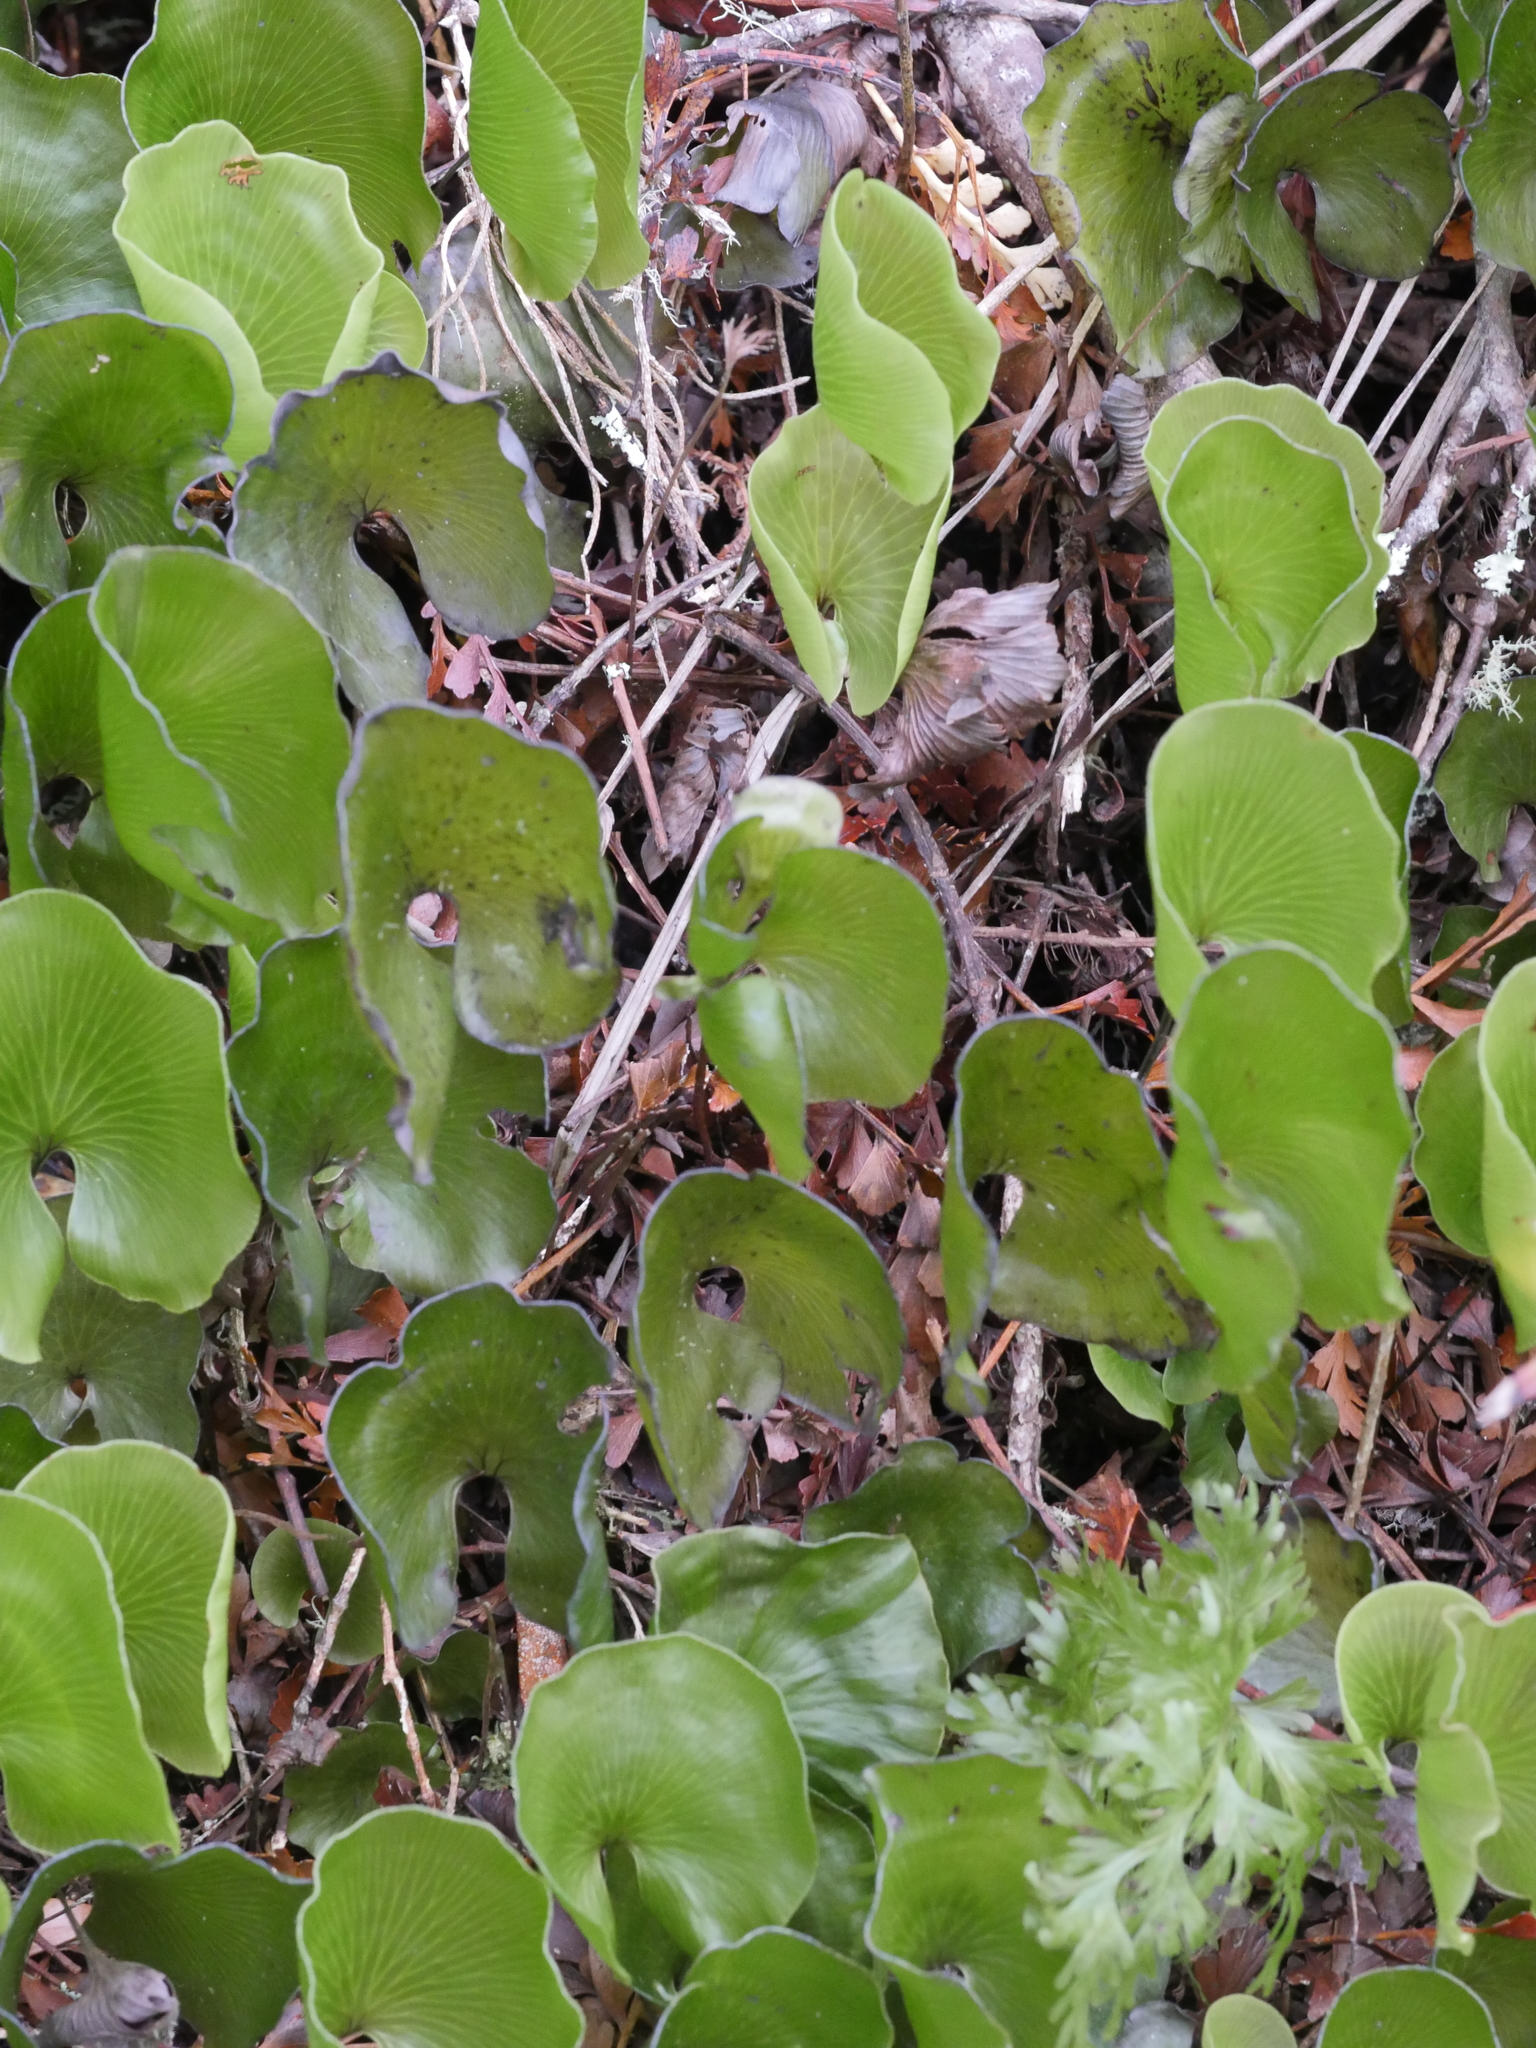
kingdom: Plantae
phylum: Tracheophyta
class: Polypodiopsida
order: Hymenophyllales
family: Hymenophyllaceae
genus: Hymenophyllum
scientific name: Hymenophyllum nephrophyllum
